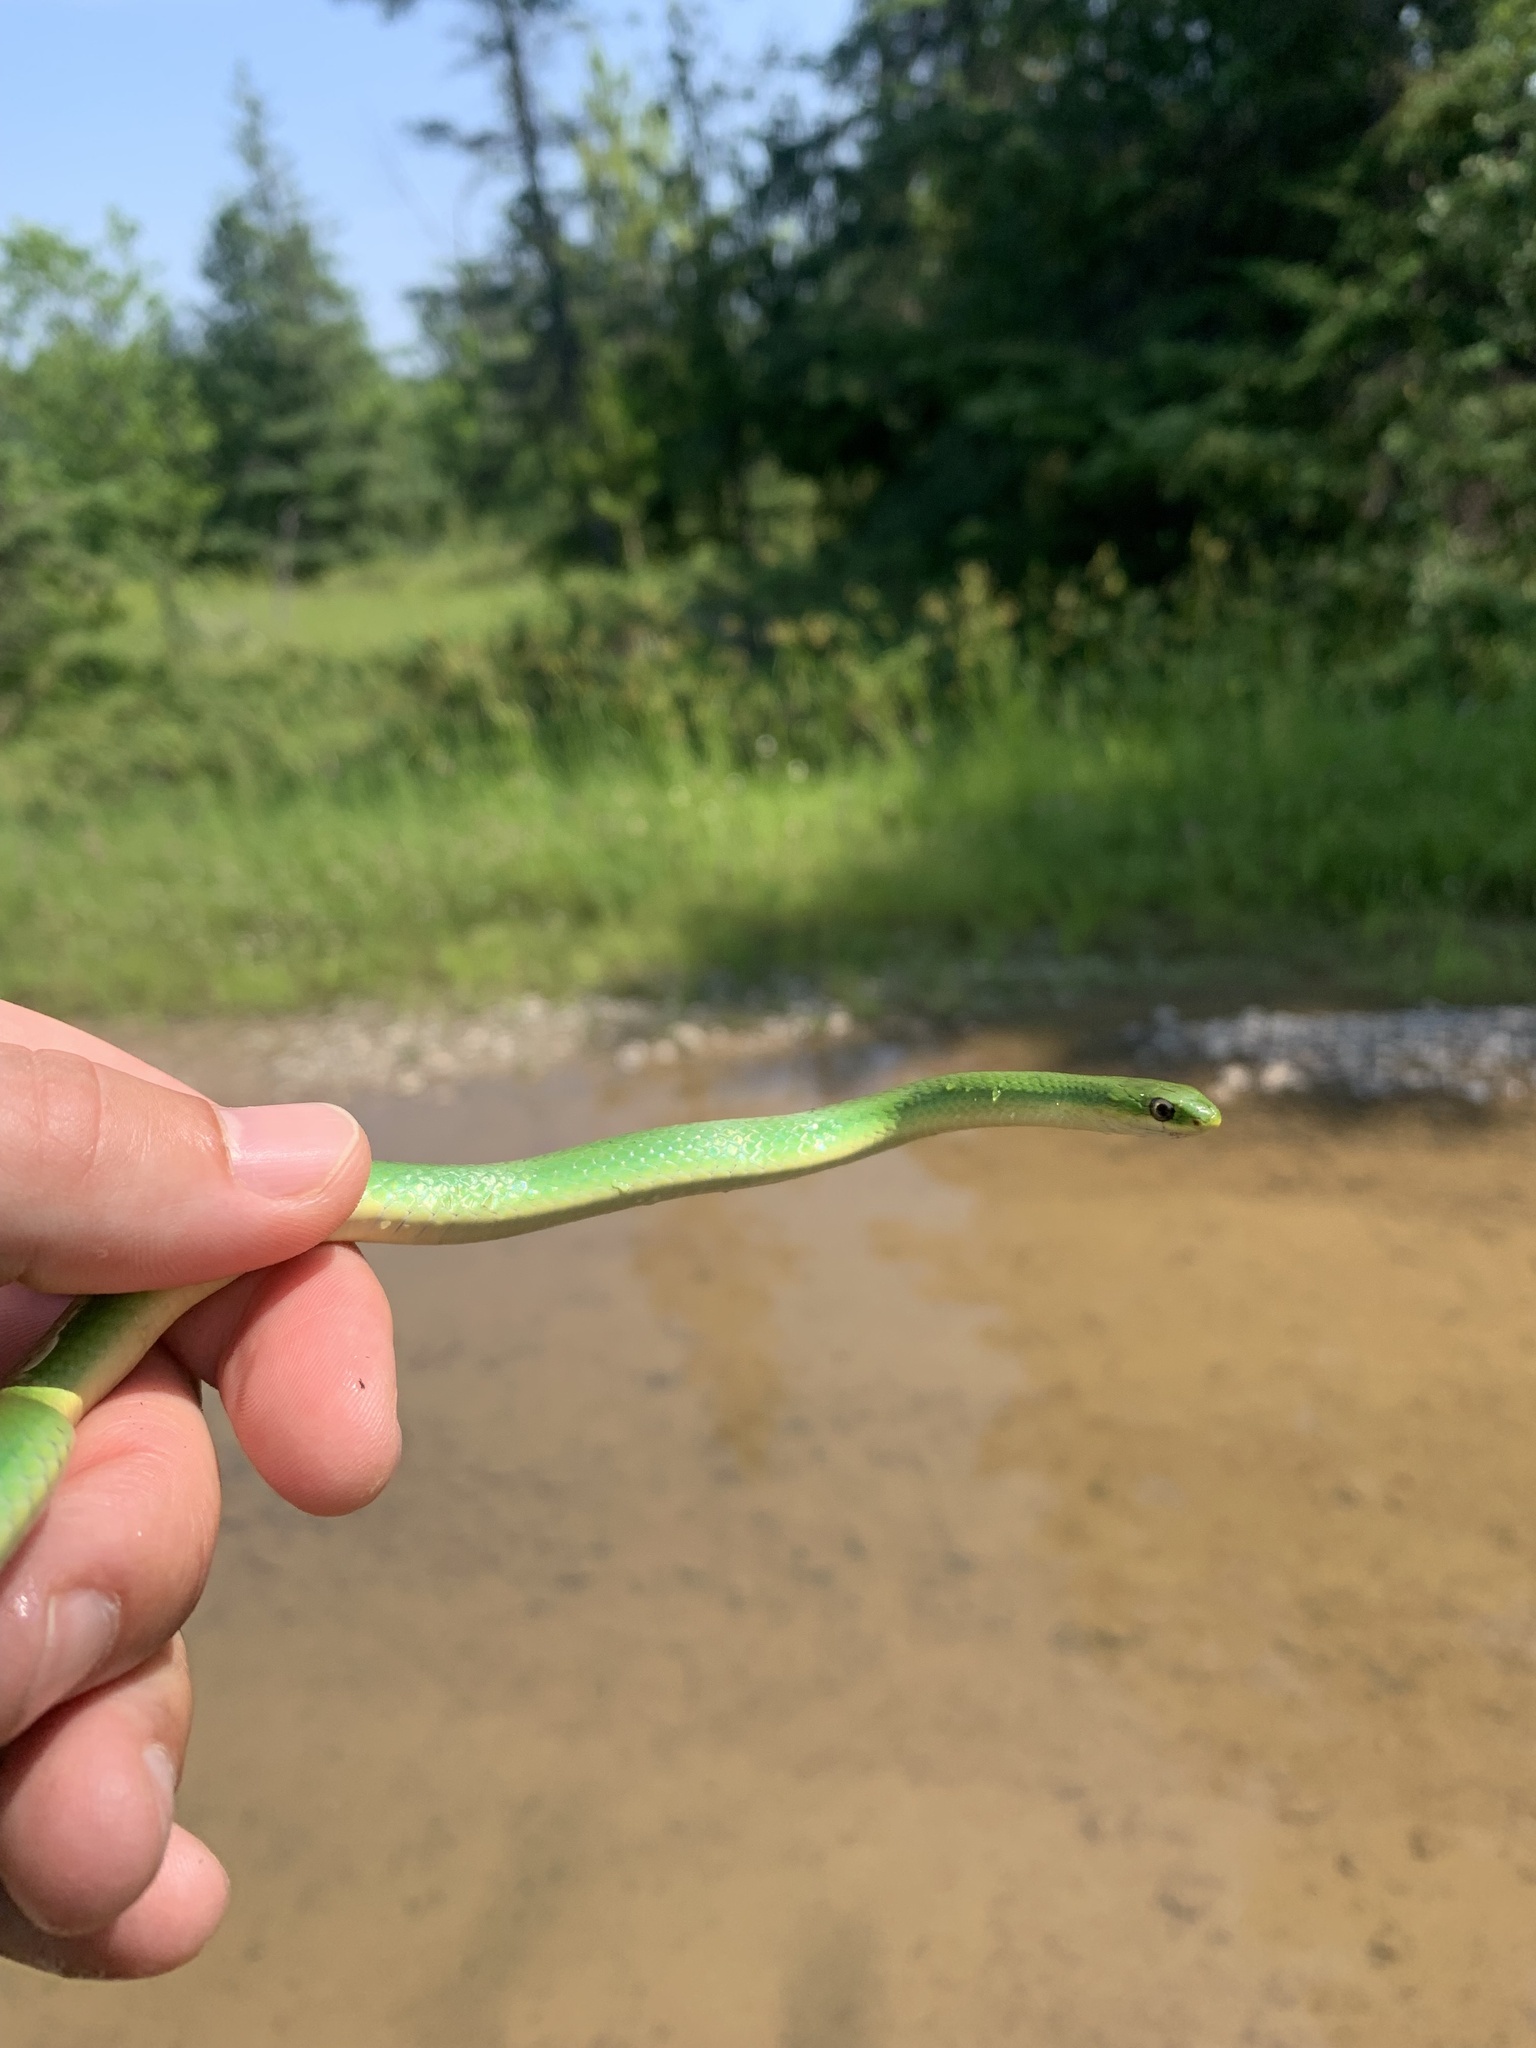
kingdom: Animalia
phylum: Chordata
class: Squamata
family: Colubridae
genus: Opheodrys
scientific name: Opheodrys vernalis
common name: Smooth green snake
